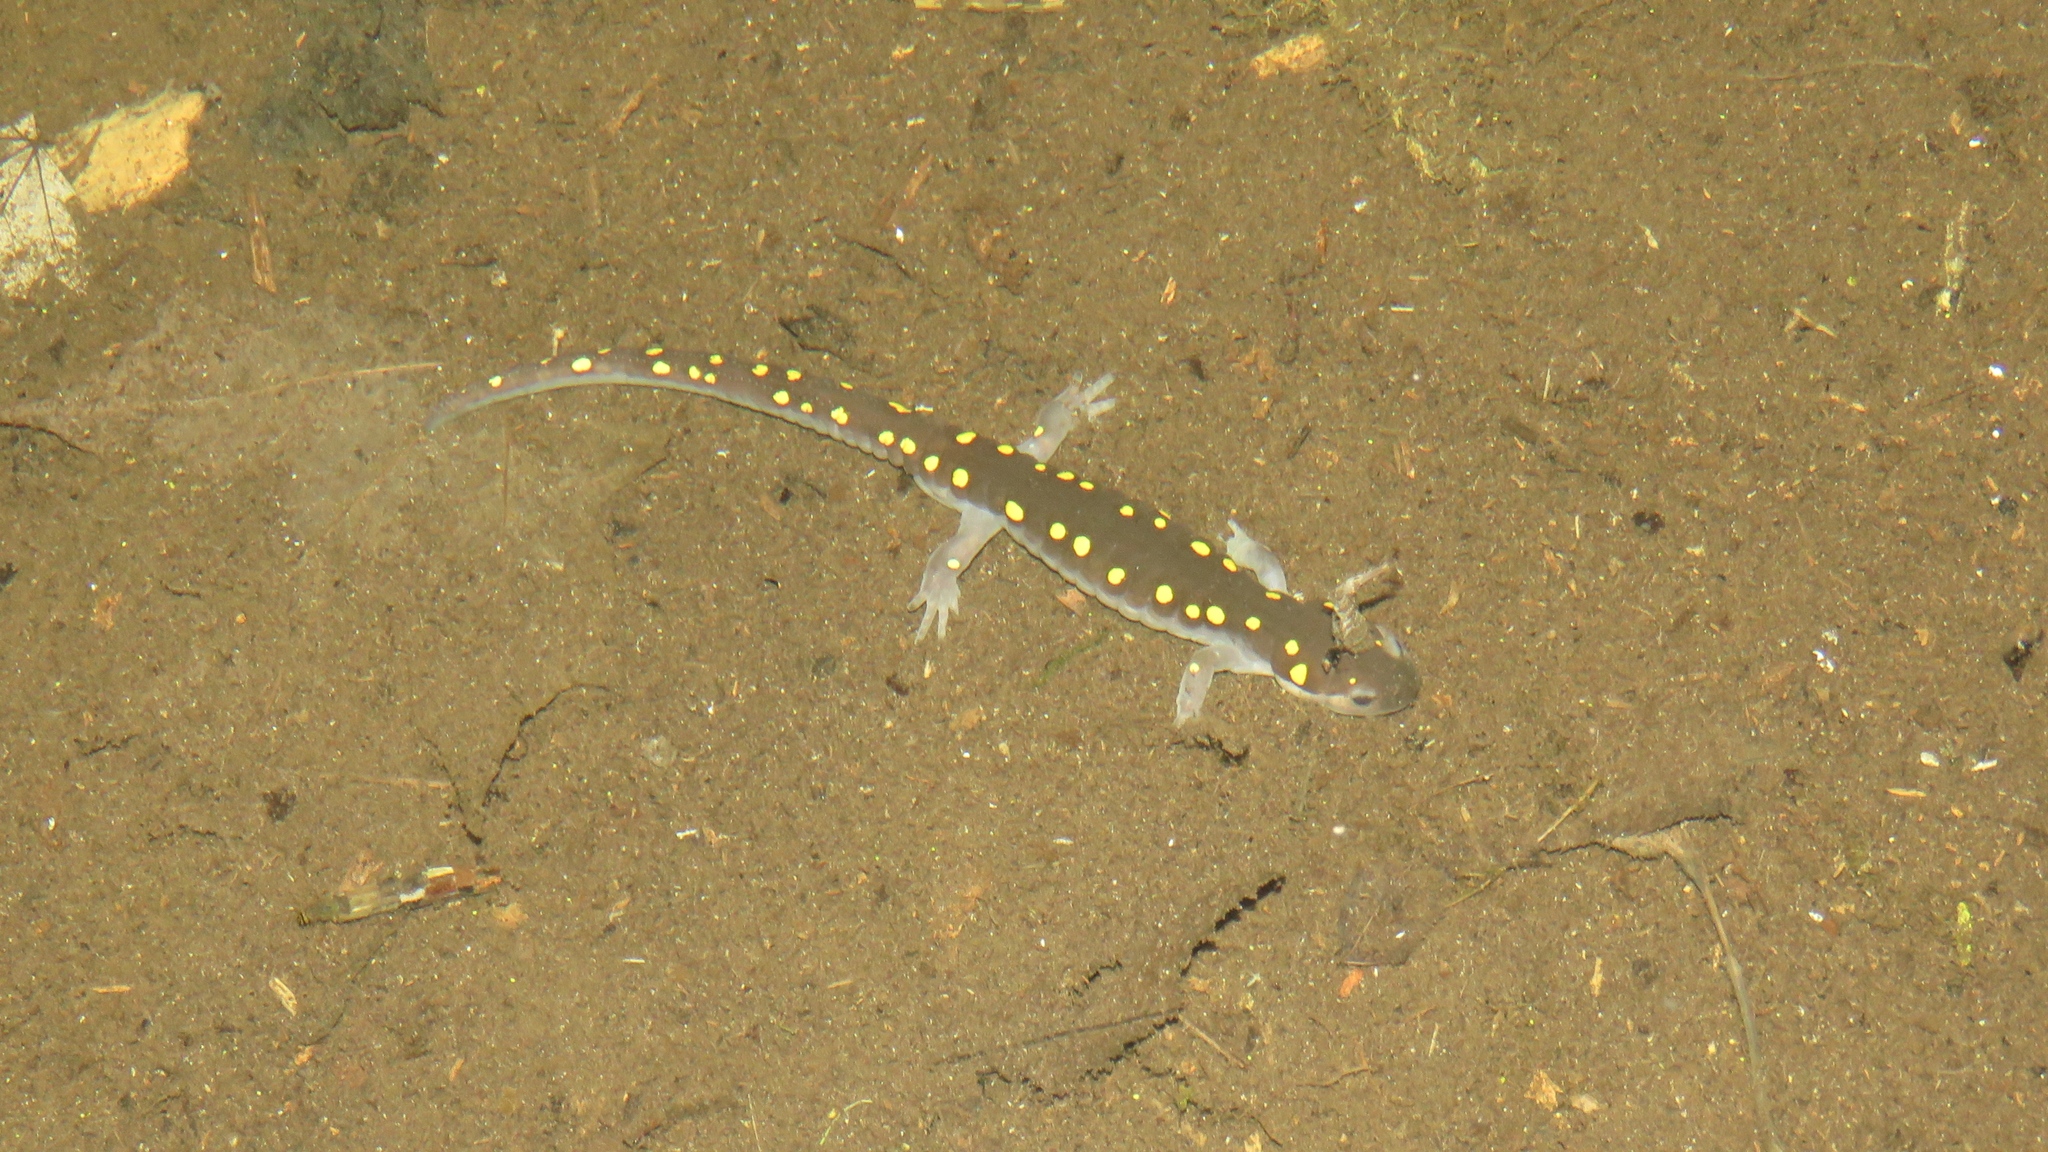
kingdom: Animalia
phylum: Chordata
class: Amphibia
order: Caudata
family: Ambystomatidae
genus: Ambystoma
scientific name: Ambystoma maculatum
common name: Spotted salamander
